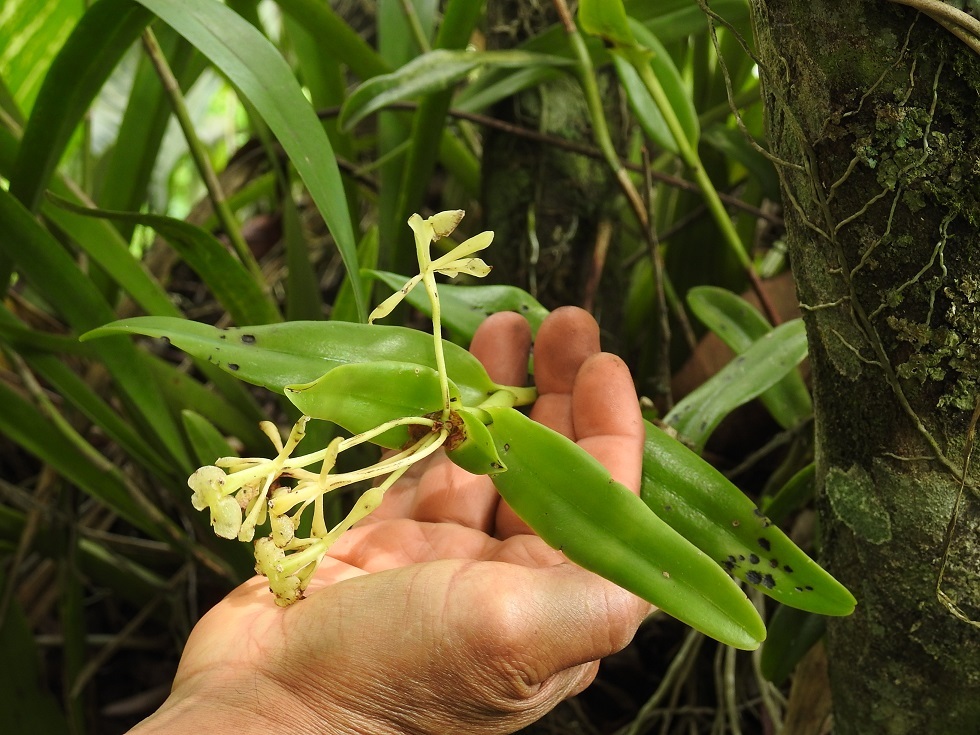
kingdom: Plantae
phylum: Tracheophyta
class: Liliopsida
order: Asparagales
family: Orchidaceae
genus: Epidendrum
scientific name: Epidendrum citrosmum
